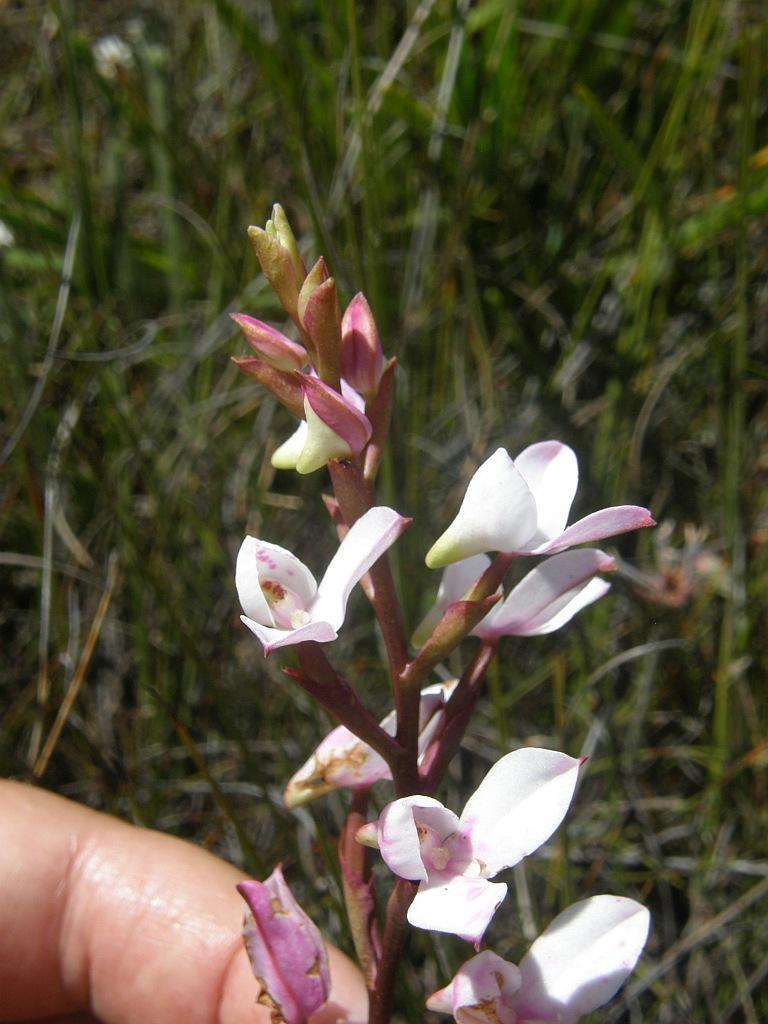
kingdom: Plantae
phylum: Tracheophyta
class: Liliopsida
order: Asparagales
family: Orchidaceae
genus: Disa
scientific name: Disa tripetaloides
